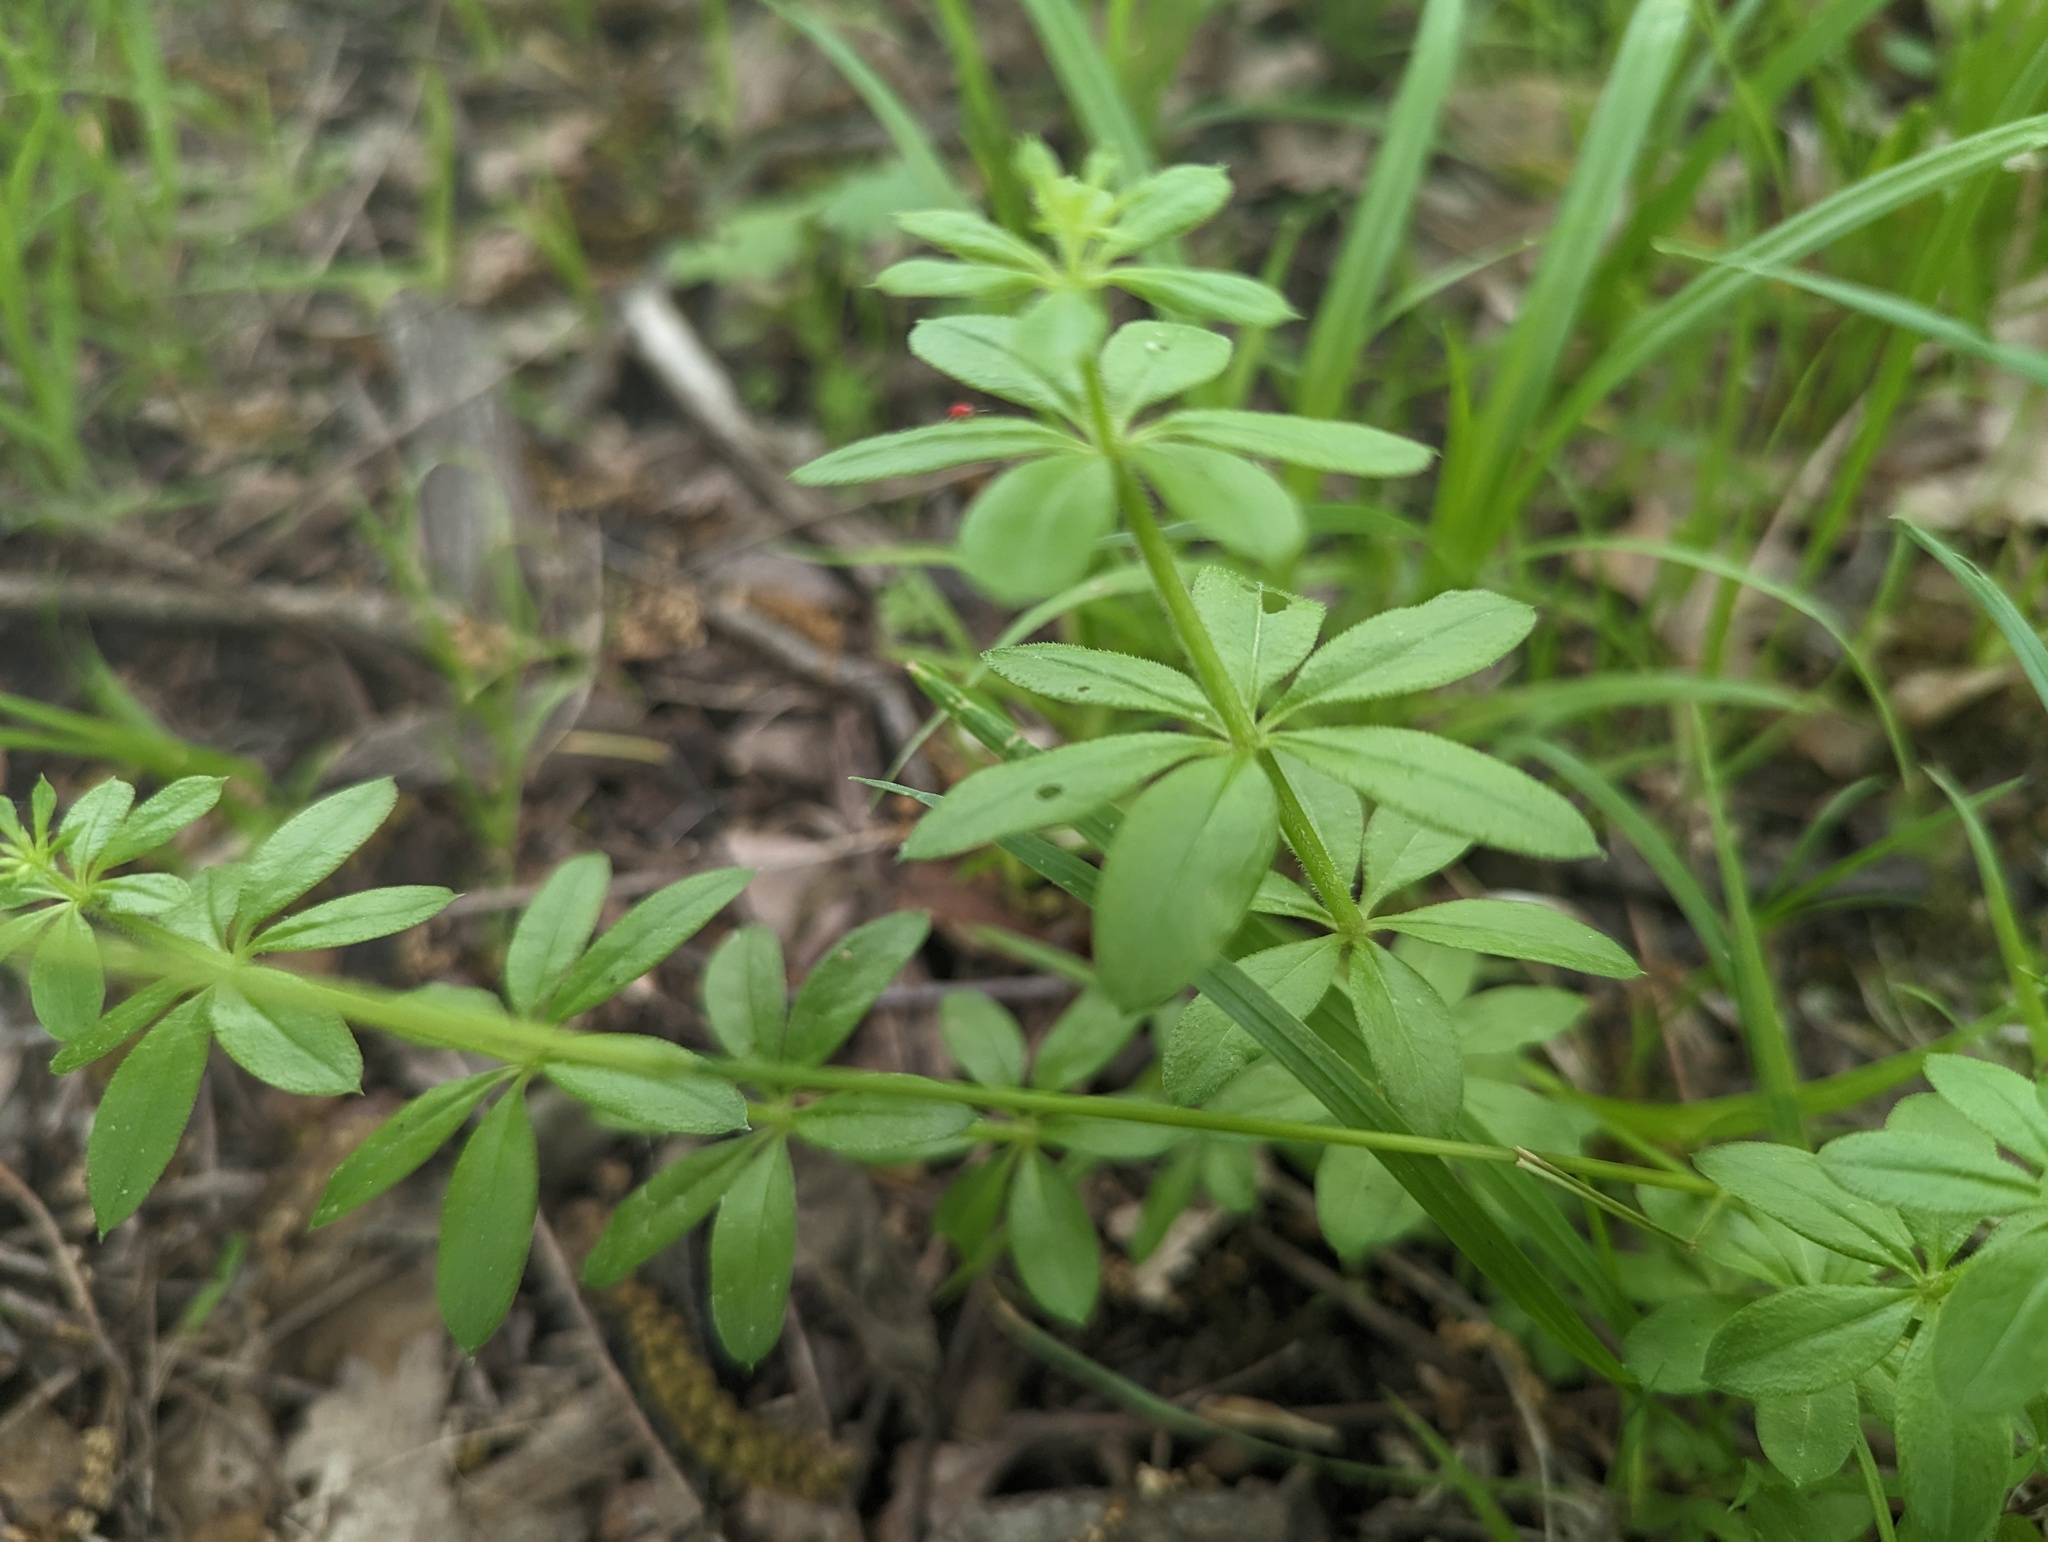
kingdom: Plantae
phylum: Tracheophyta
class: Magnoliopsida
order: Gentianales
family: Rubiaceae
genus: Galium
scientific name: Galium triflorum
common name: Fragrant bedstraw
